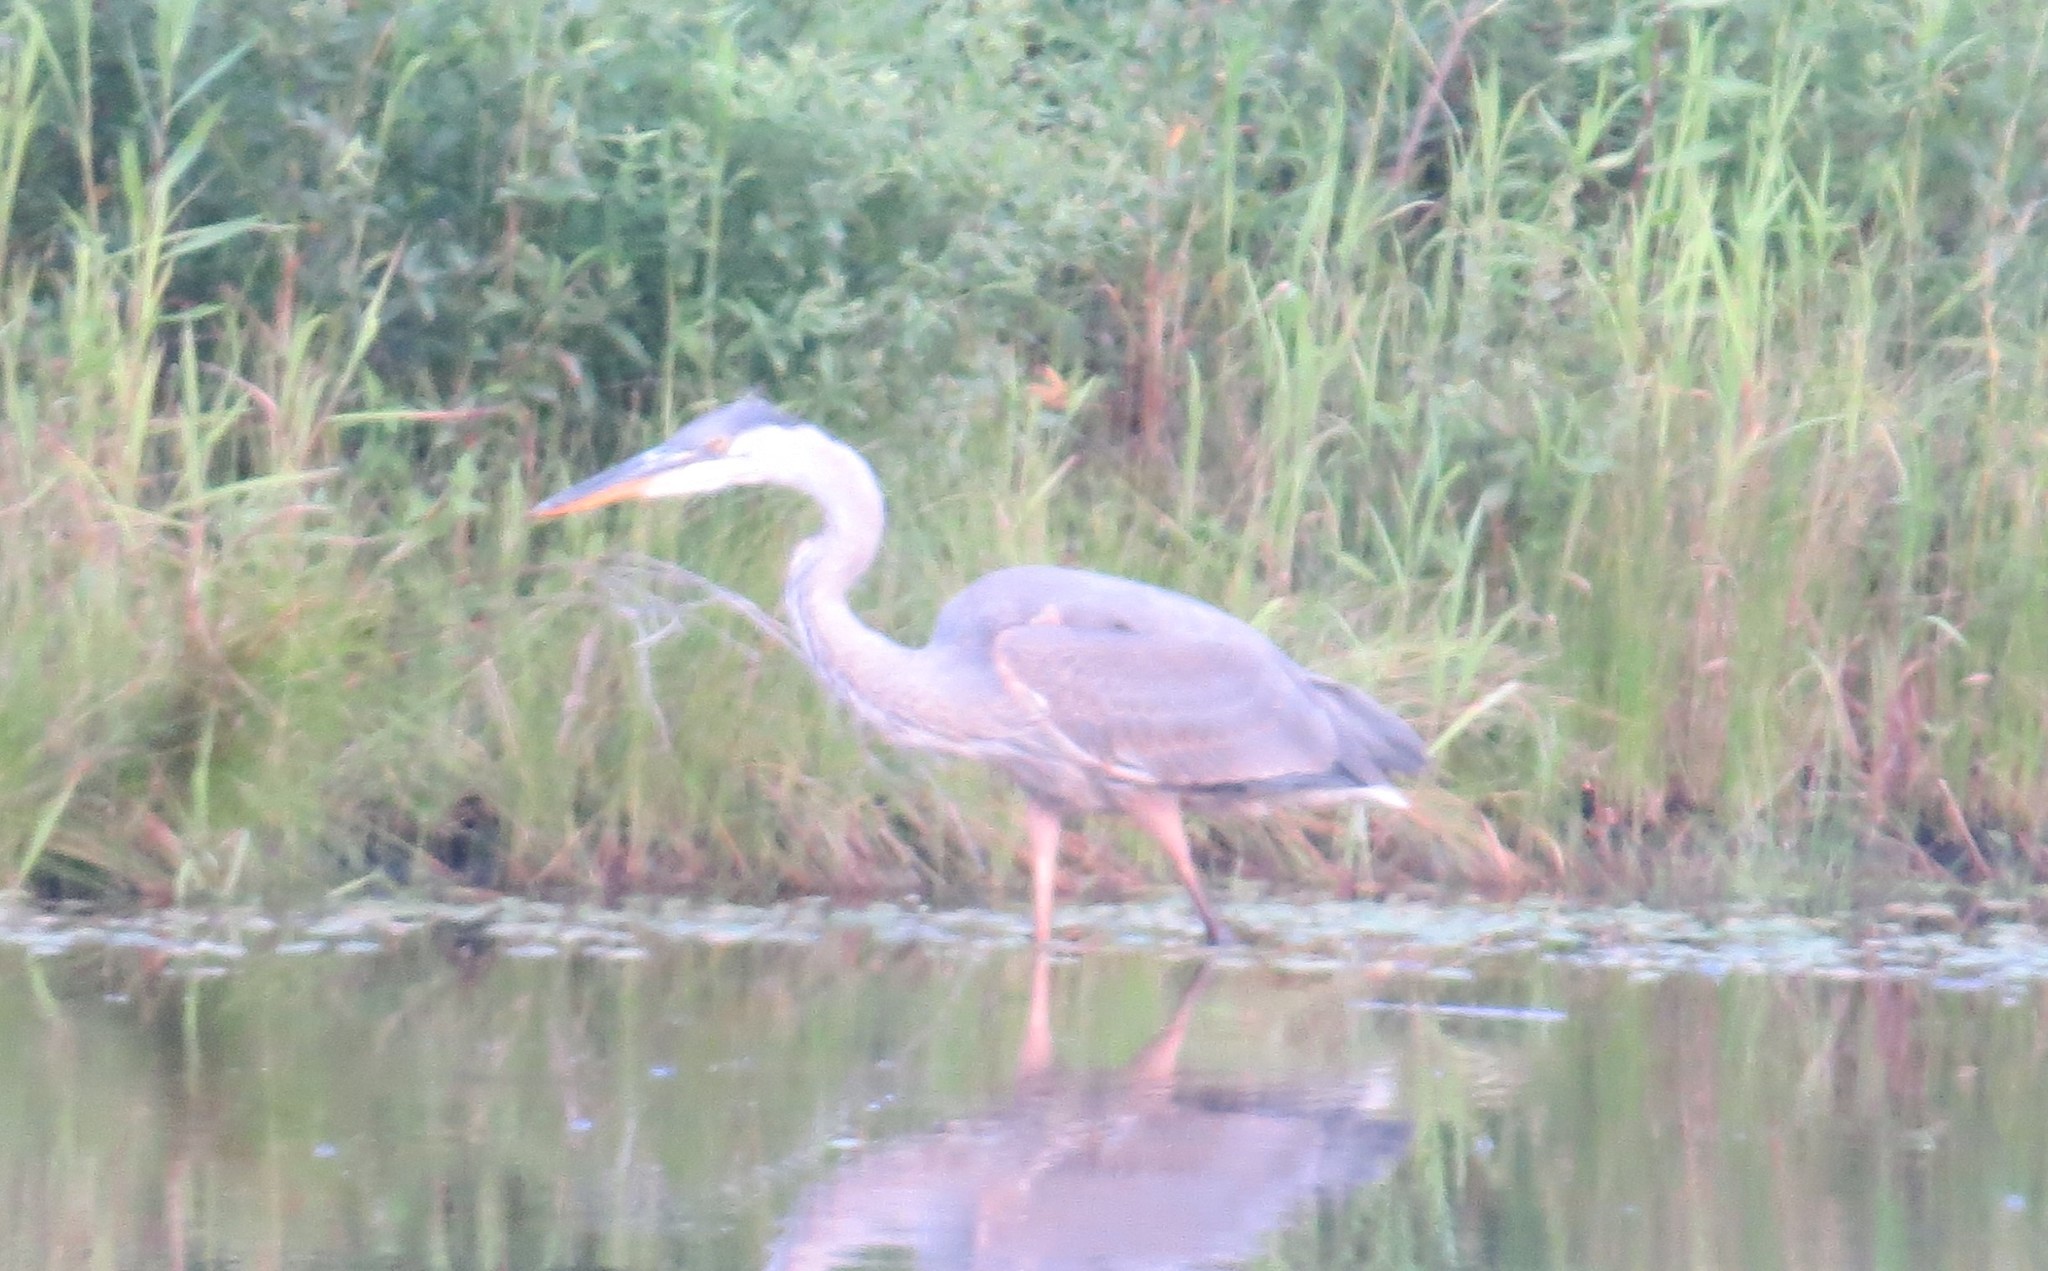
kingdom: Animalia
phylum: Chordata
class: Aves
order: Pelecaniformes
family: Ardeidae
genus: Ardea
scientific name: Ardea herodias
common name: Great blue heron
